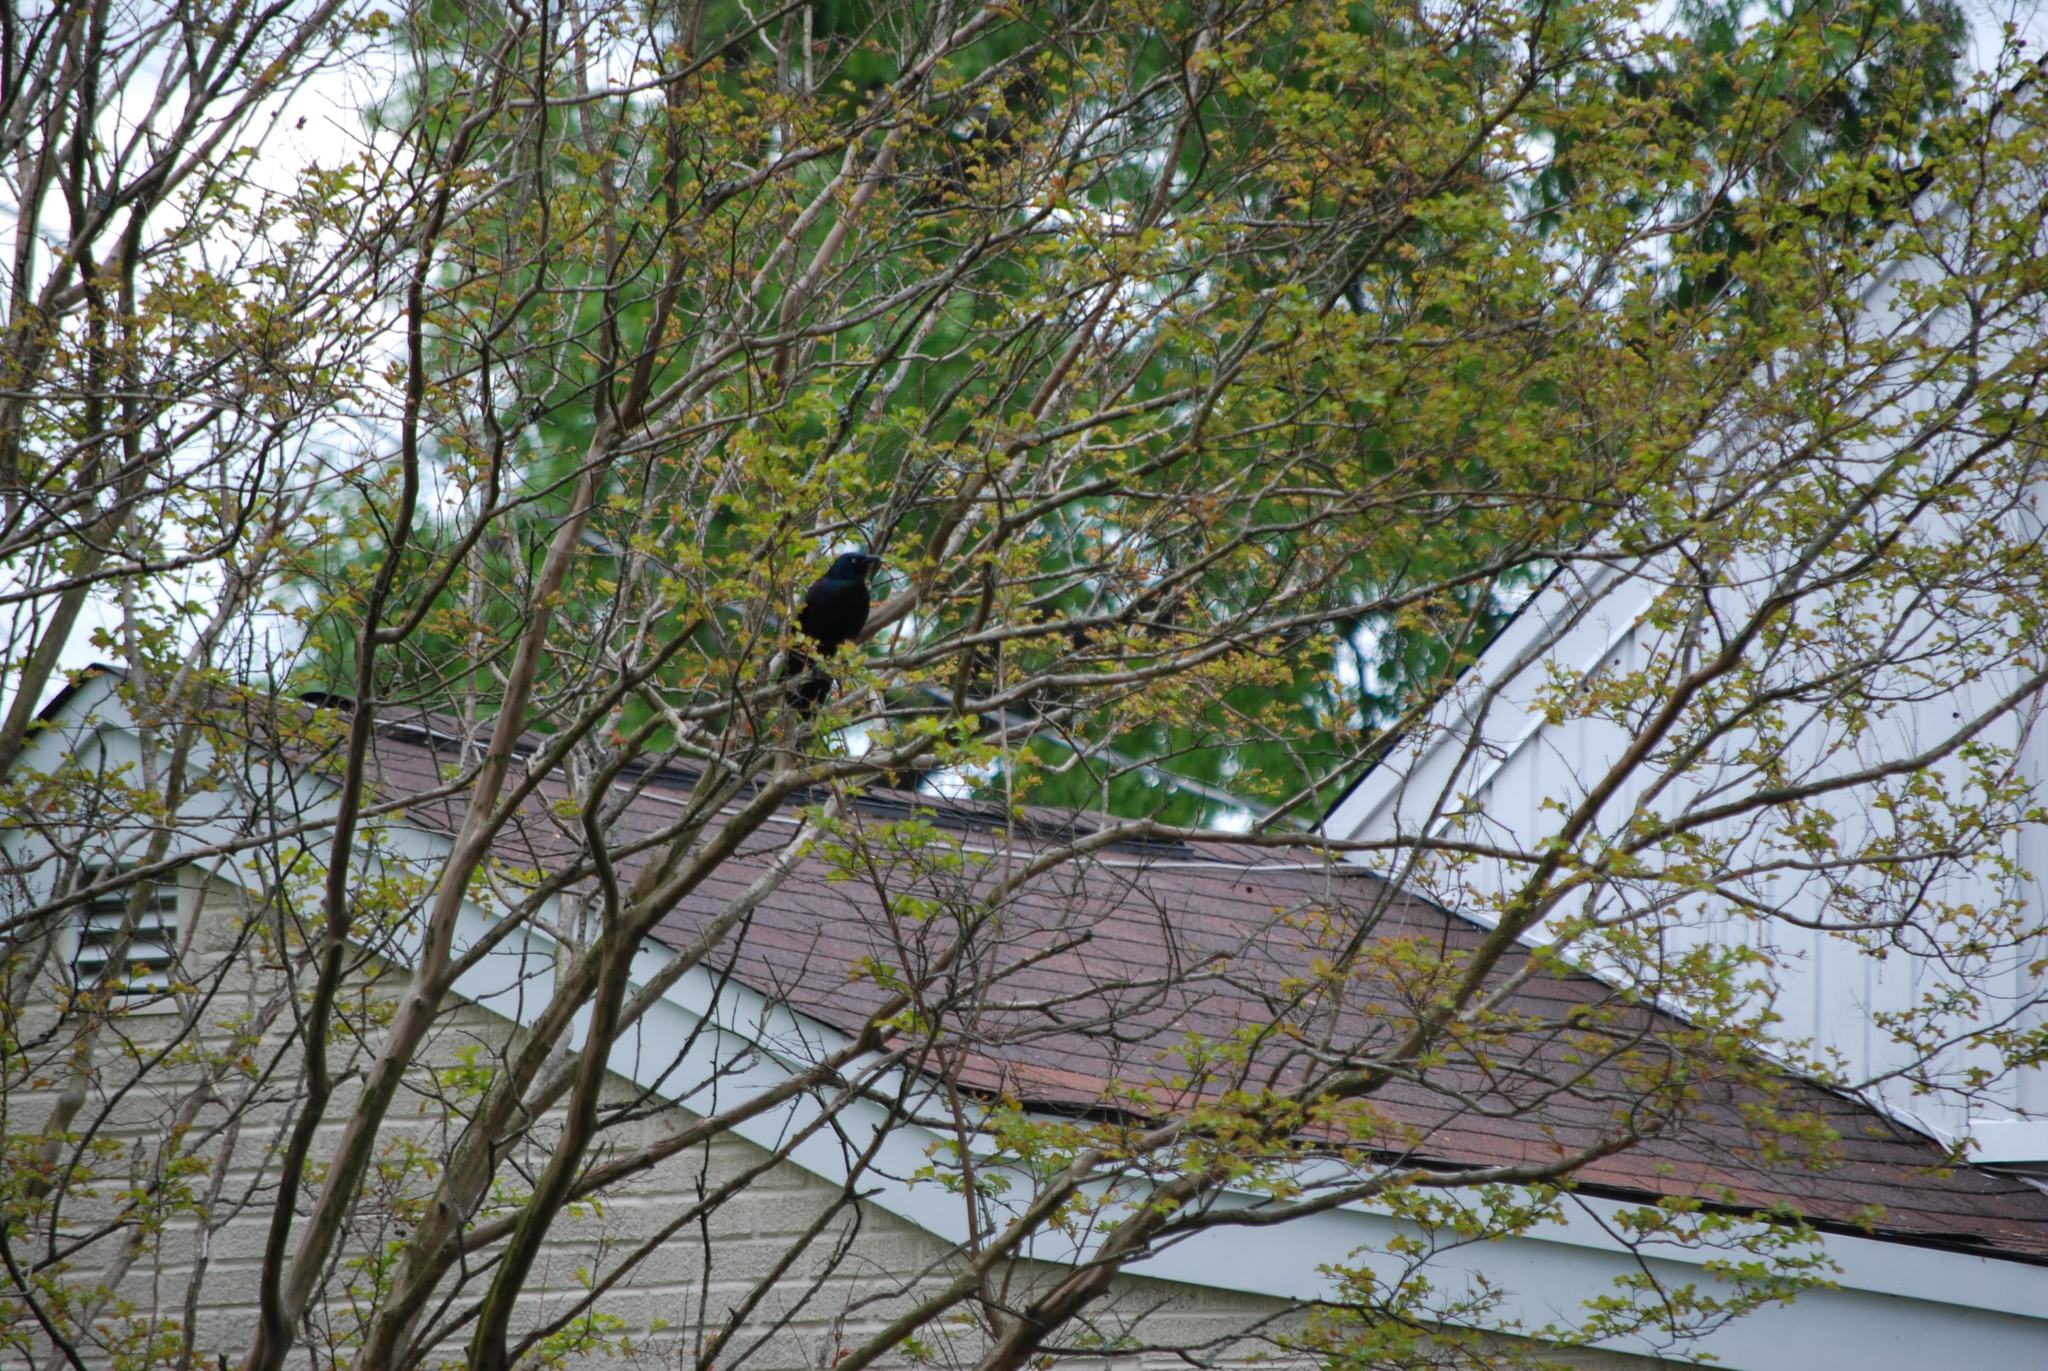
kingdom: Animalia
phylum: Chordata
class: Aves
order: Passeriformes
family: Icteridae
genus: Quiscalus
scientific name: Quiscalus quiscula
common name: Common grackle
